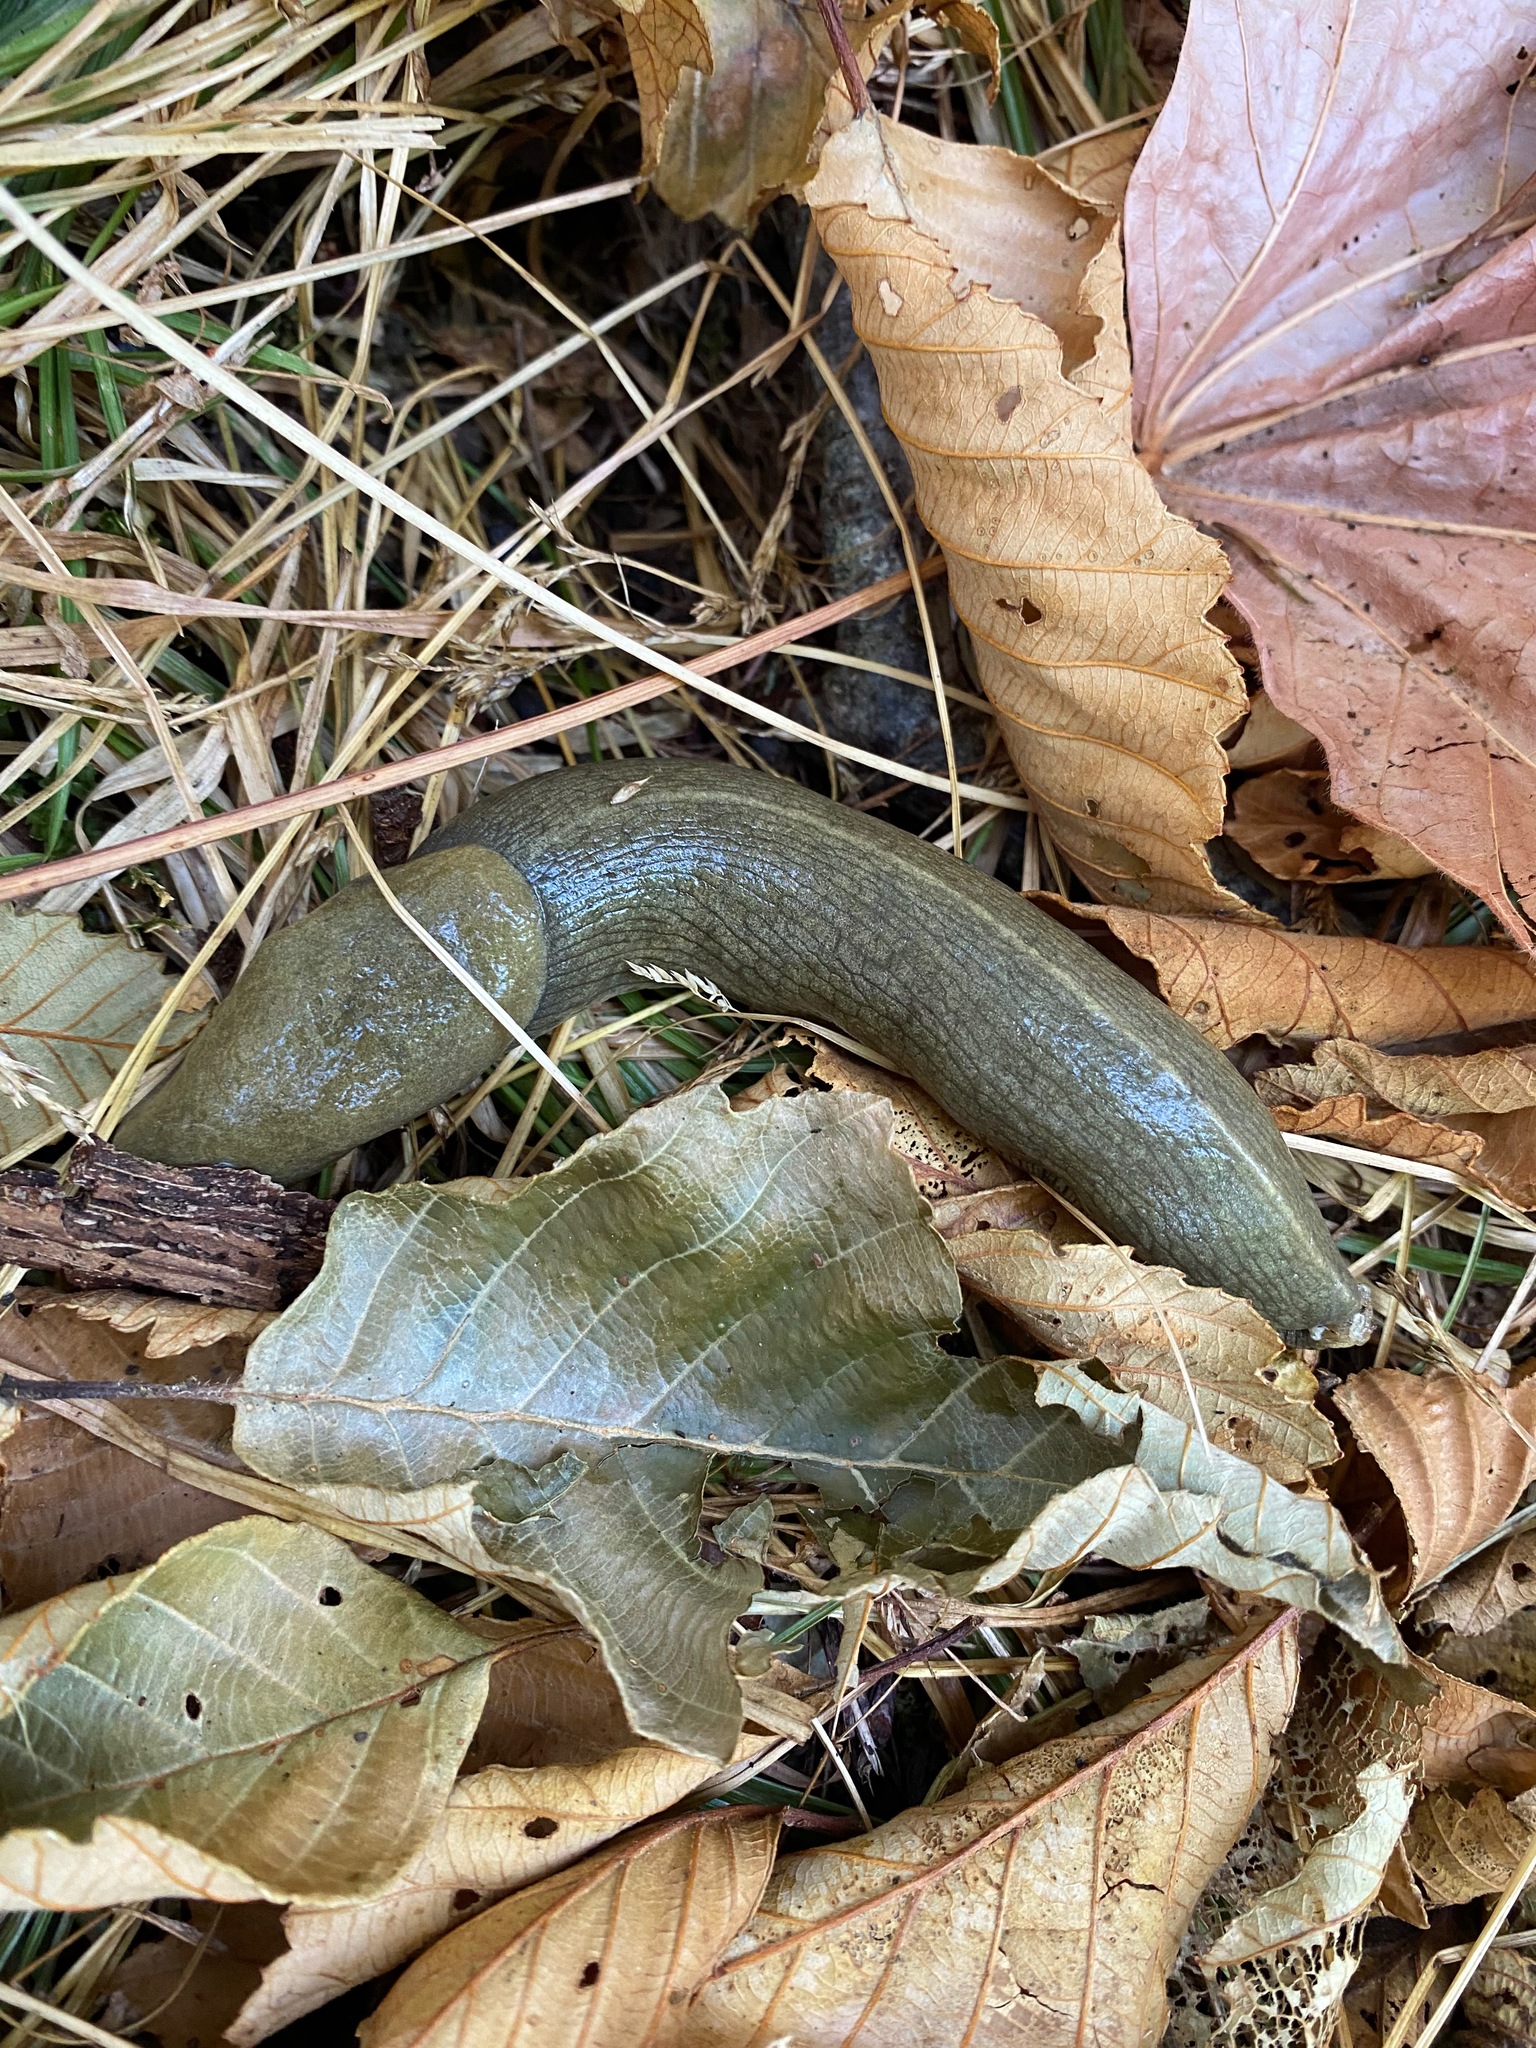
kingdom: Animalia
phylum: Mollusca
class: Gastropoda
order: Stylommatophora
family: Ariolimacidae
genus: Ariolimax
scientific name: Ariolimax columbianus
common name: Pacific banana slug
